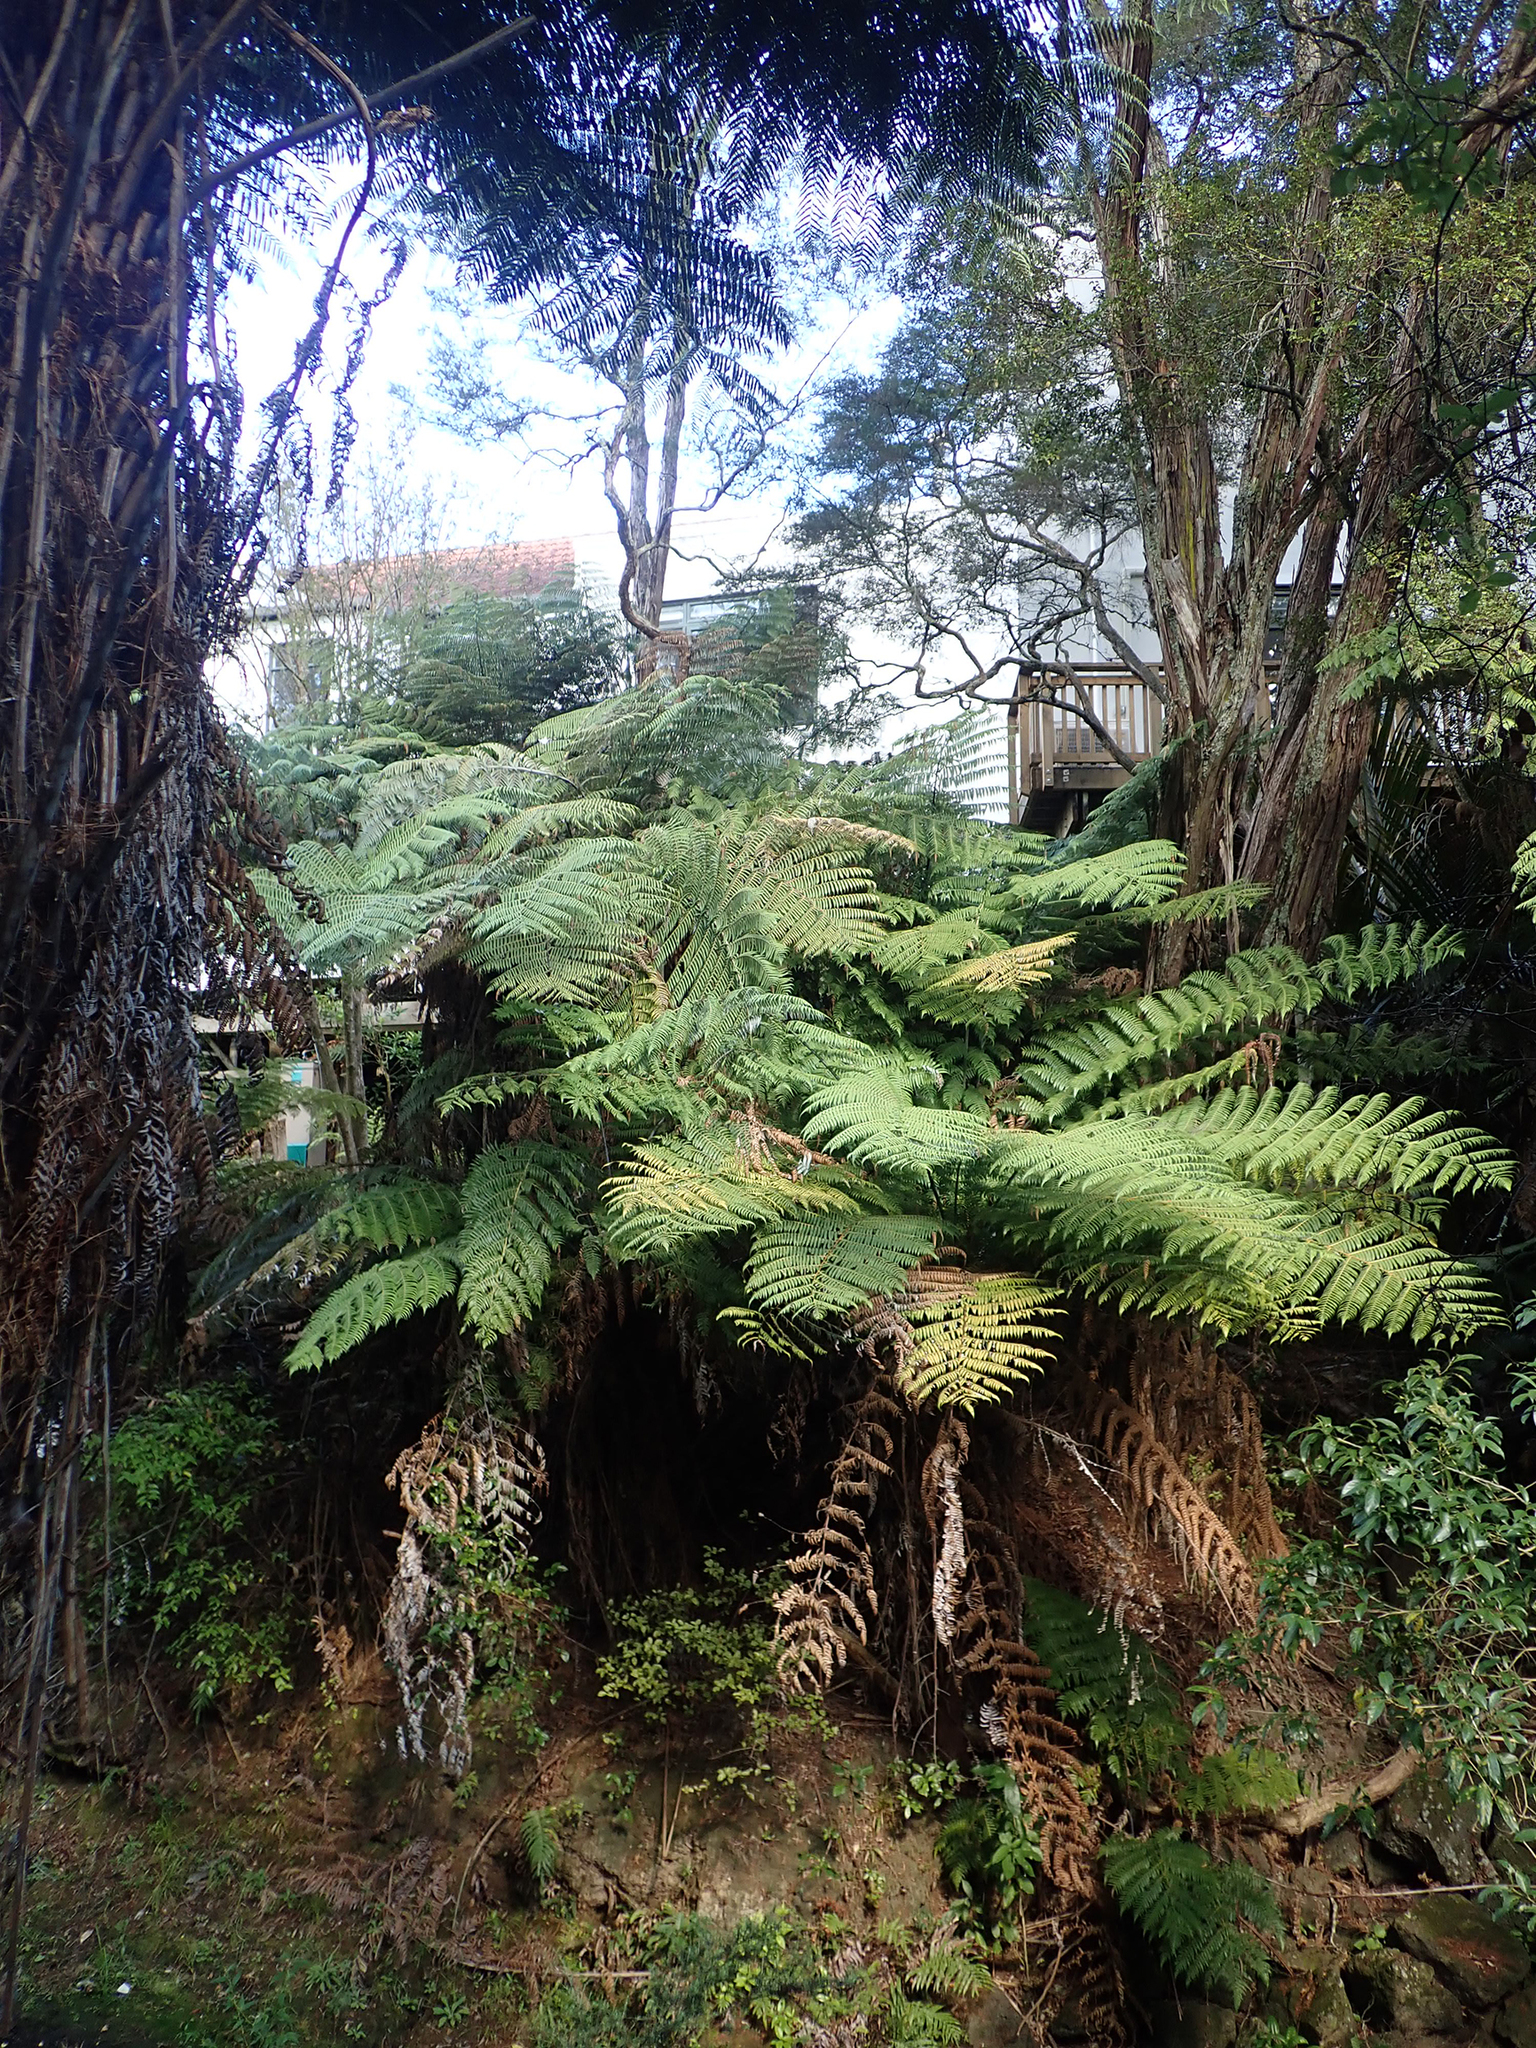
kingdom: Plantae
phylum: Tracheophyta
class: Polypodiopsida
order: Cyatheales
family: Cyatheaceae
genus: Alsophila
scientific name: Alsophila dealbata
